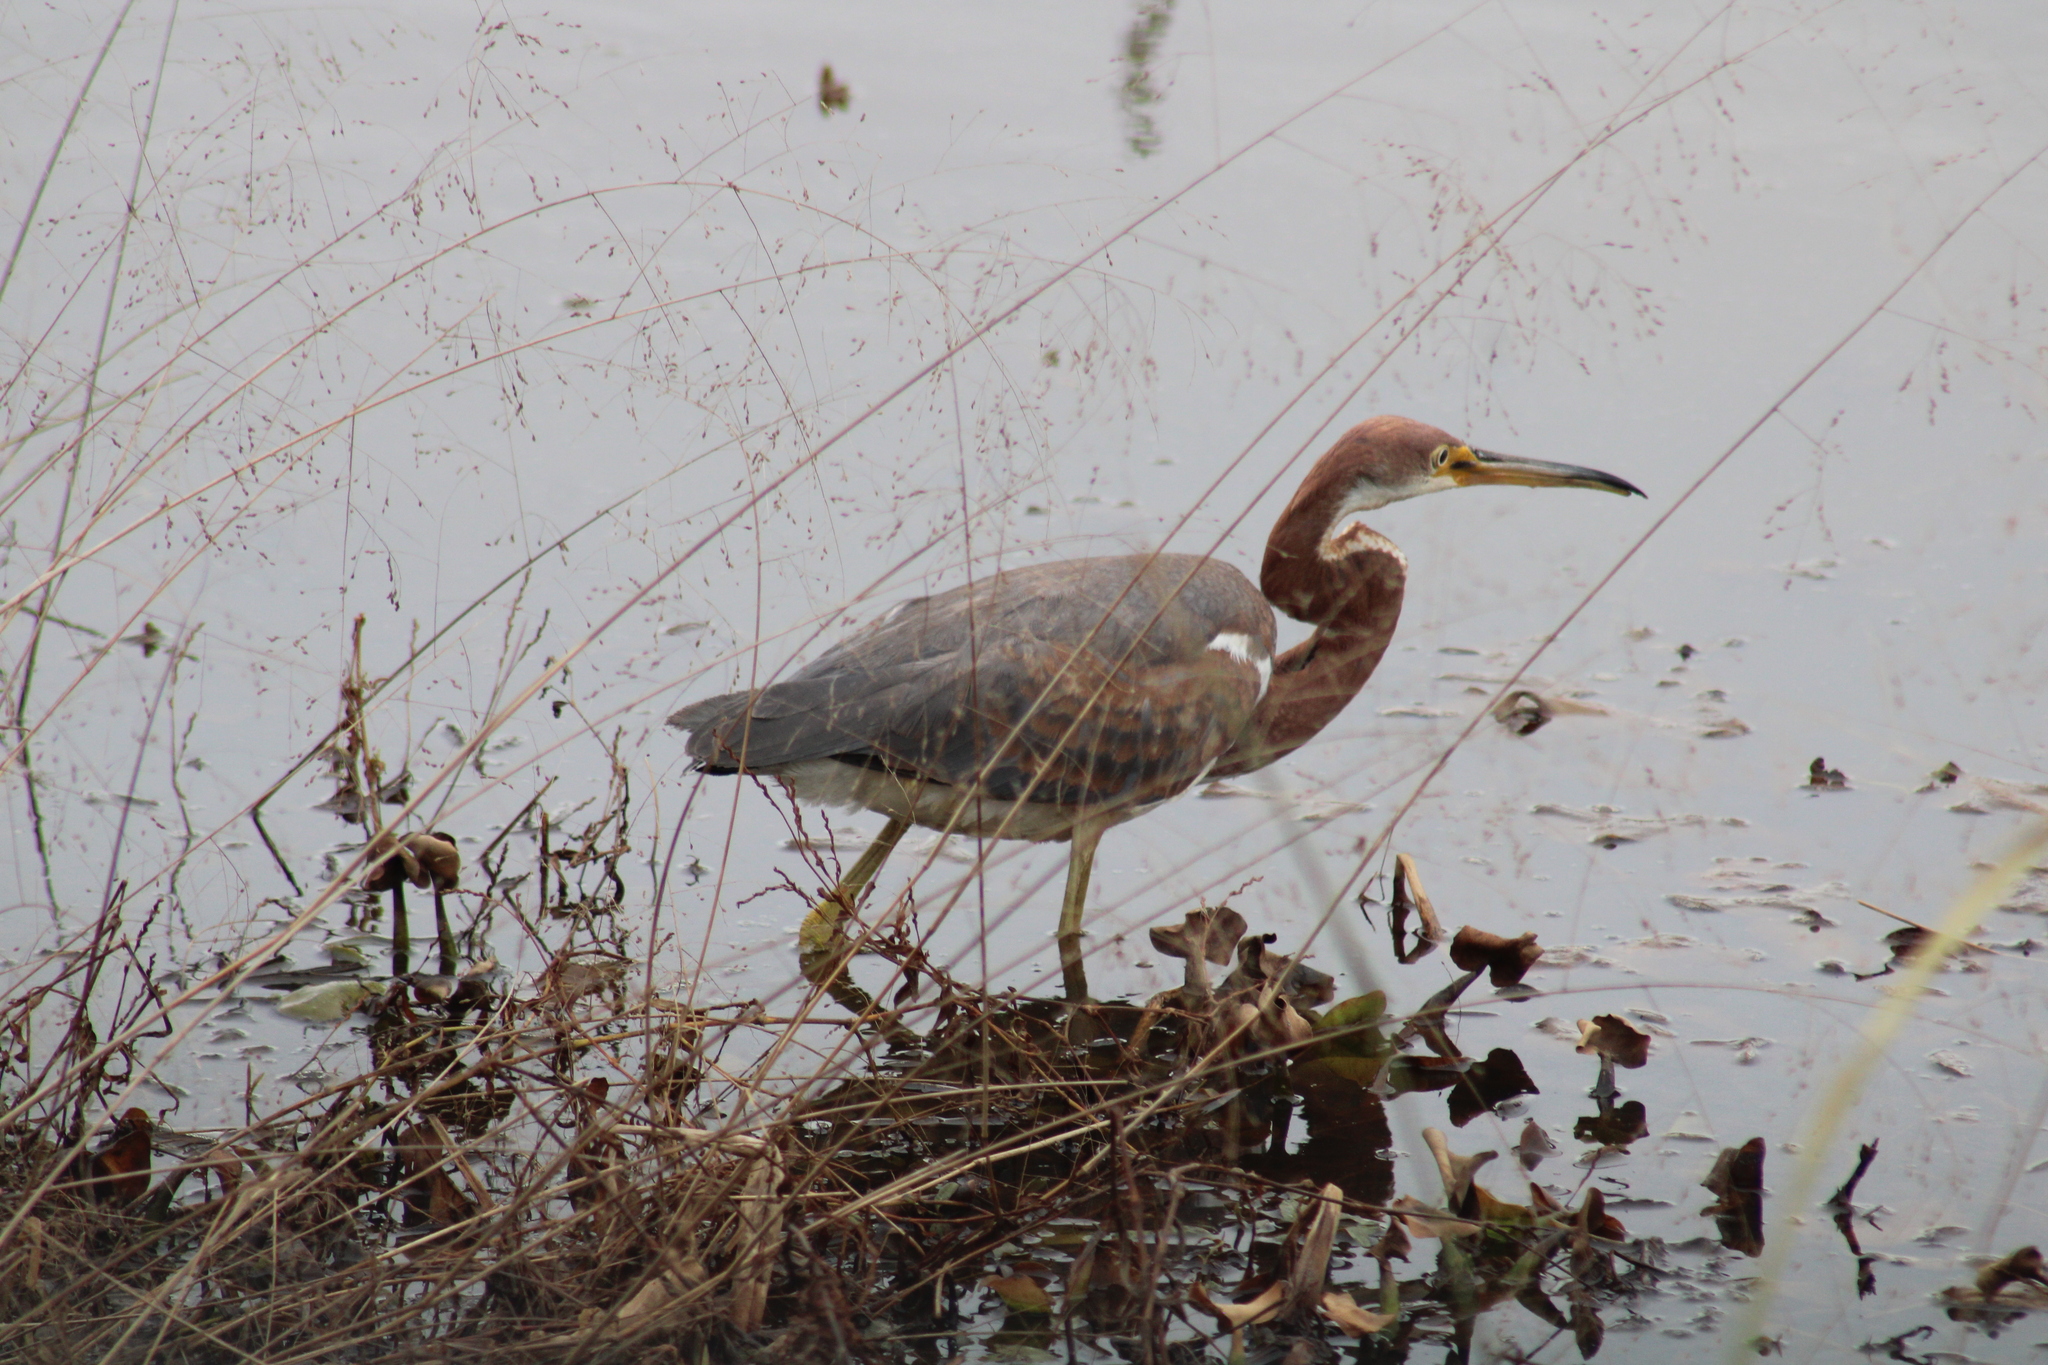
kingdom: Animalia
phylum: Chordata
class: Aves
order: Pelecaniformes
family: Ardeidae
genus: Egretta
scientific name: Egretta tricolor
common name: Tricolored heron
